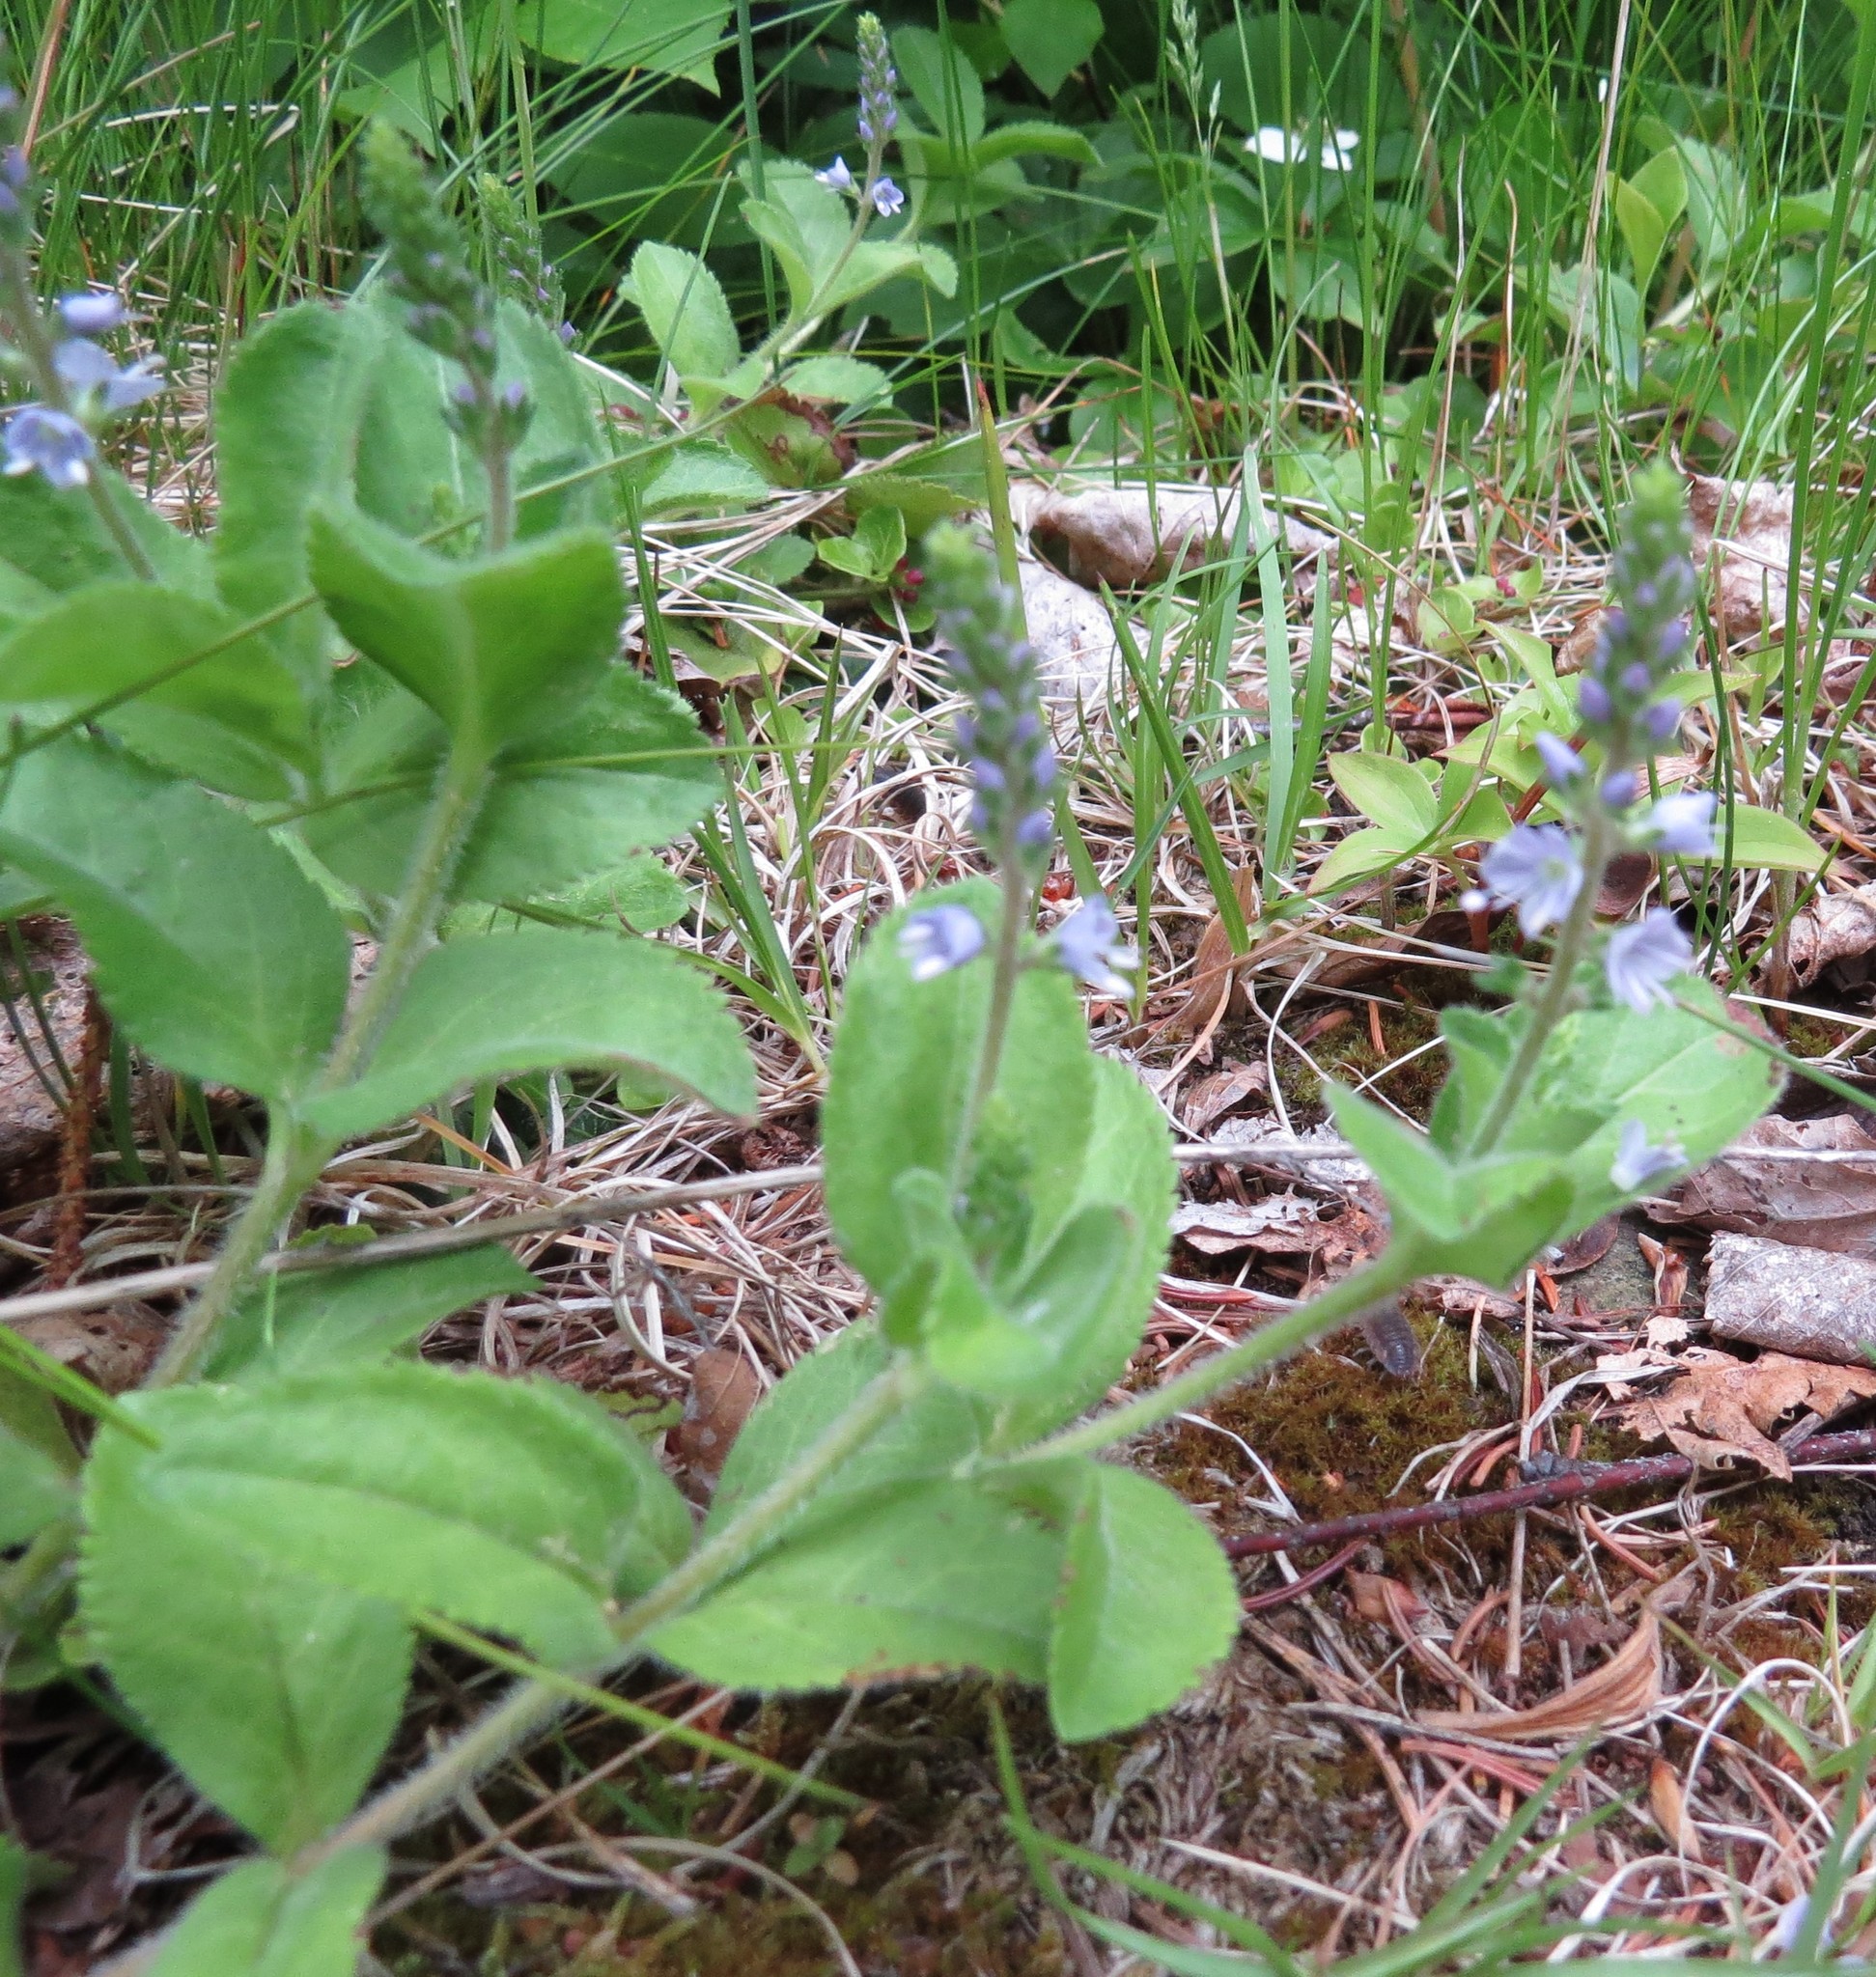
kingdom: Plantae
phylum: Tracheophyta
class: Magnoliopsida
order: Lamiales
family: Plantaginaceae
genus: Veronica
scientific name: Veronica officinalis
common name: Common speedwell
